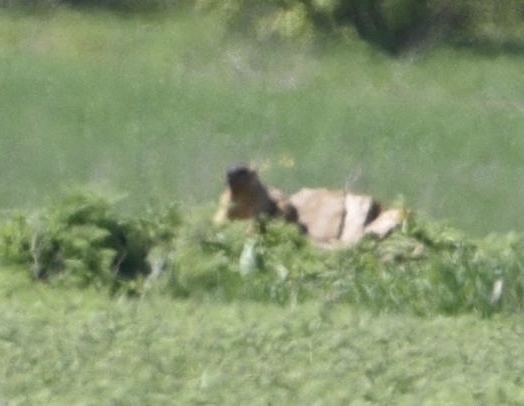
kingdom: Animalia
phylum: Chordata
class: Mammalia
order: Rodentia
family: Sciuridae
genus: Marmota
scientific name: Marmota bobak
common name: Bobak marmot
